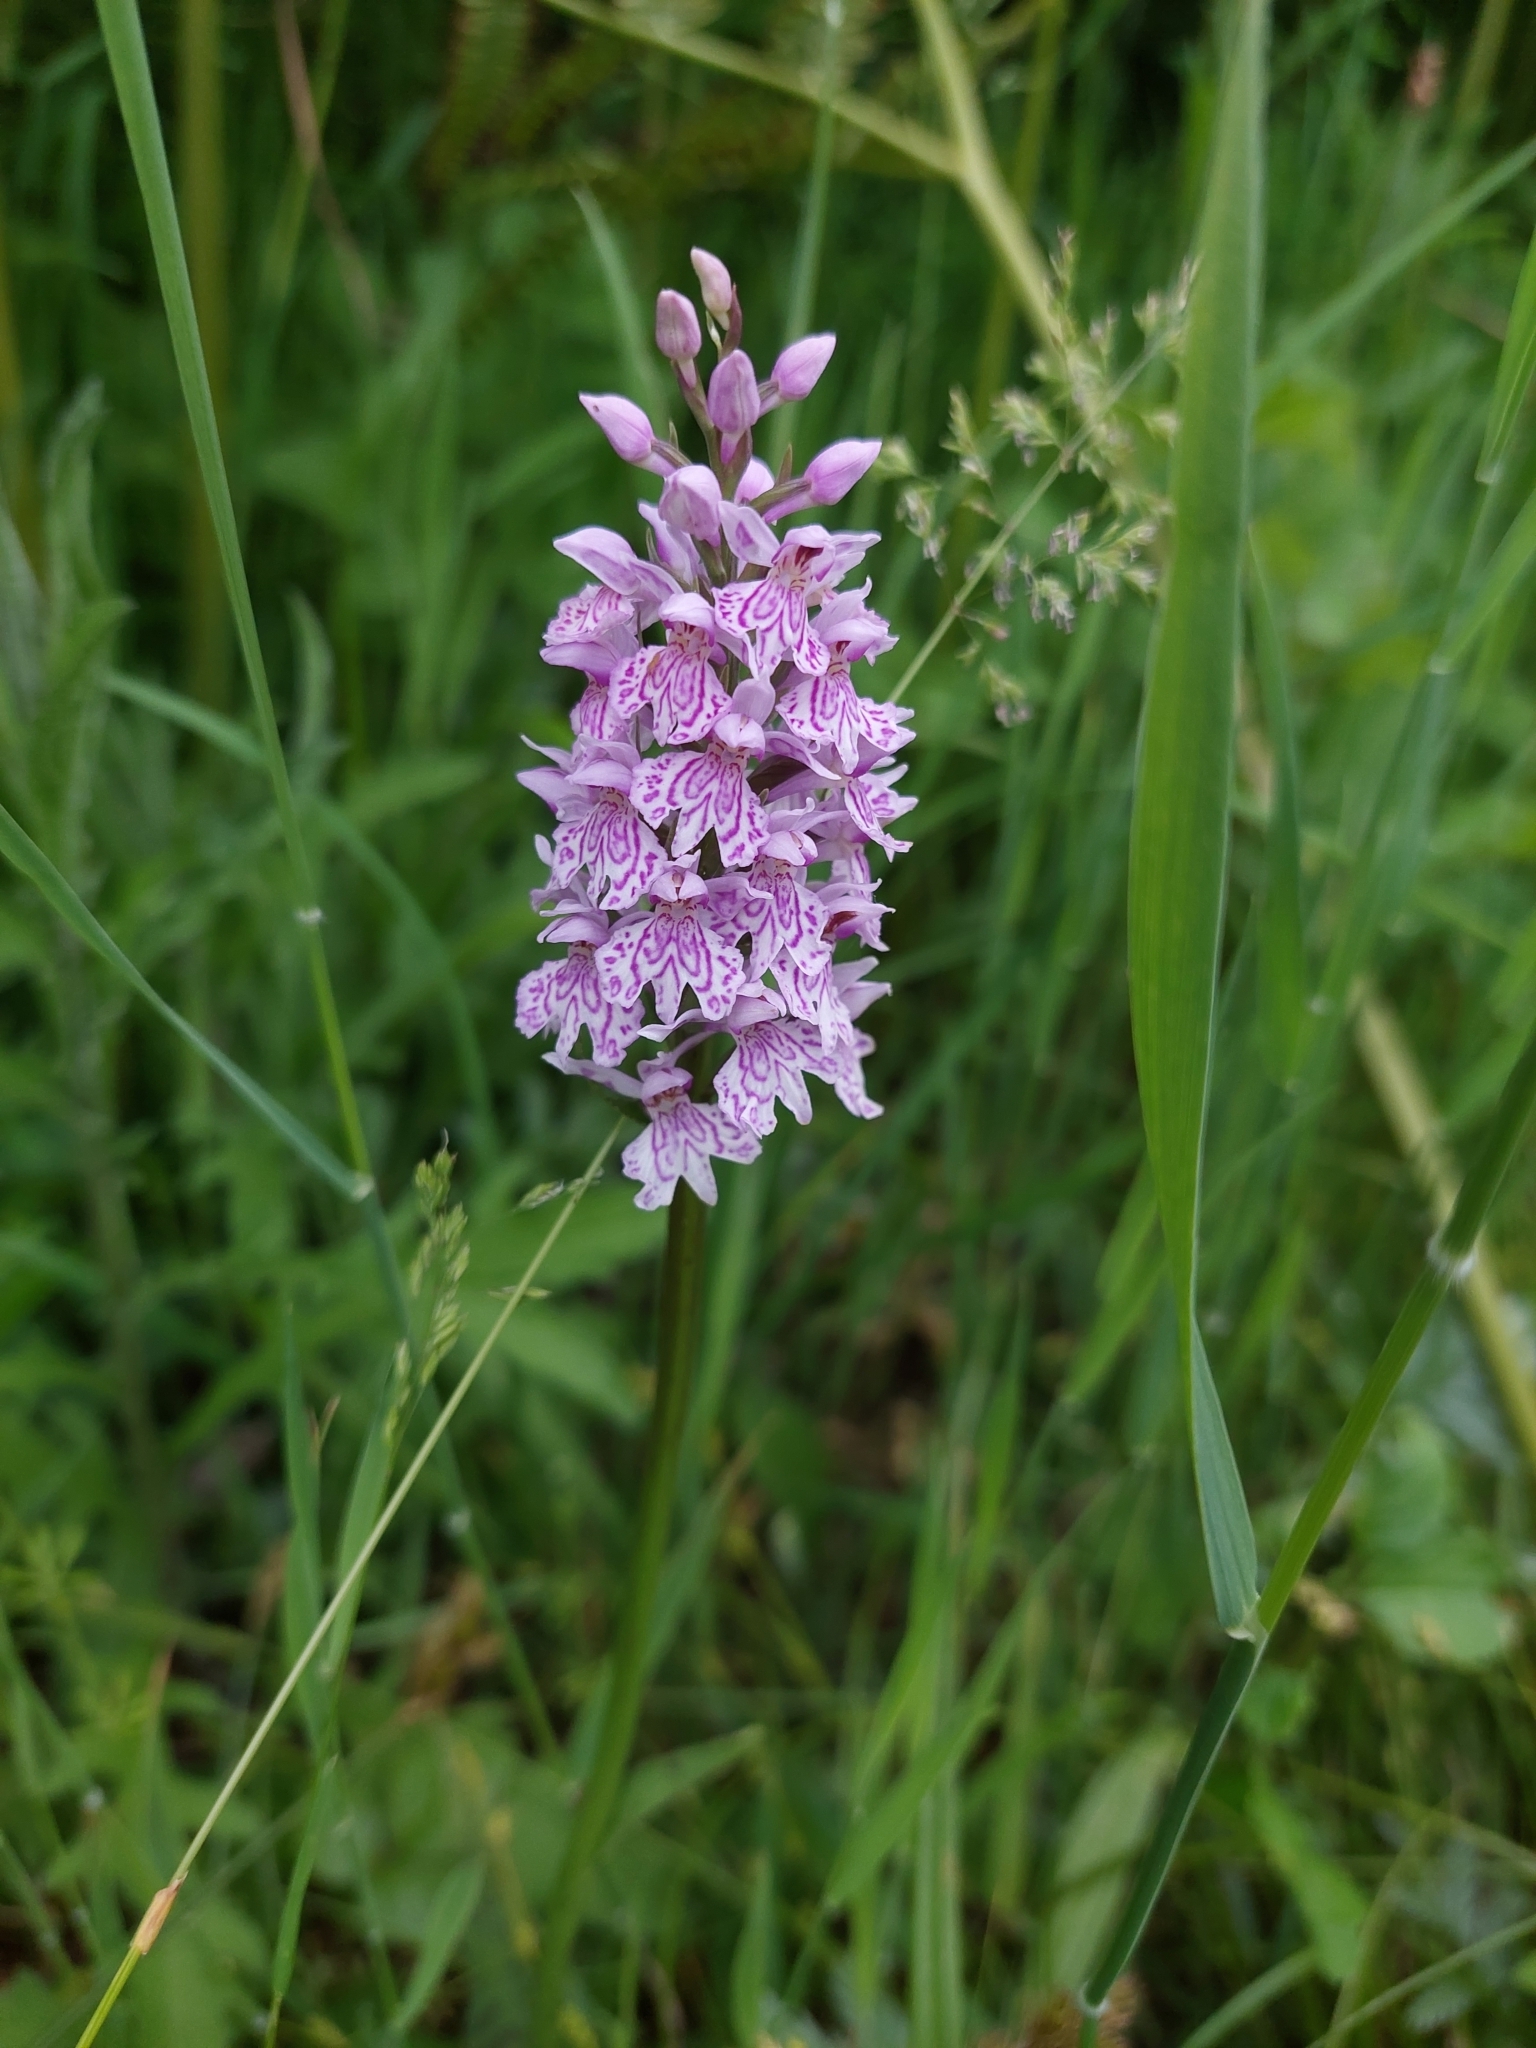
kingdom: Plantae
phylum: Tracheophyta
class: Liliopsida
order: Asparagales
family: Orchidaceae
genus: Dactylorhiza
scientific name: Dactylorhiza maculata
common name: Heath spotted-orchid
